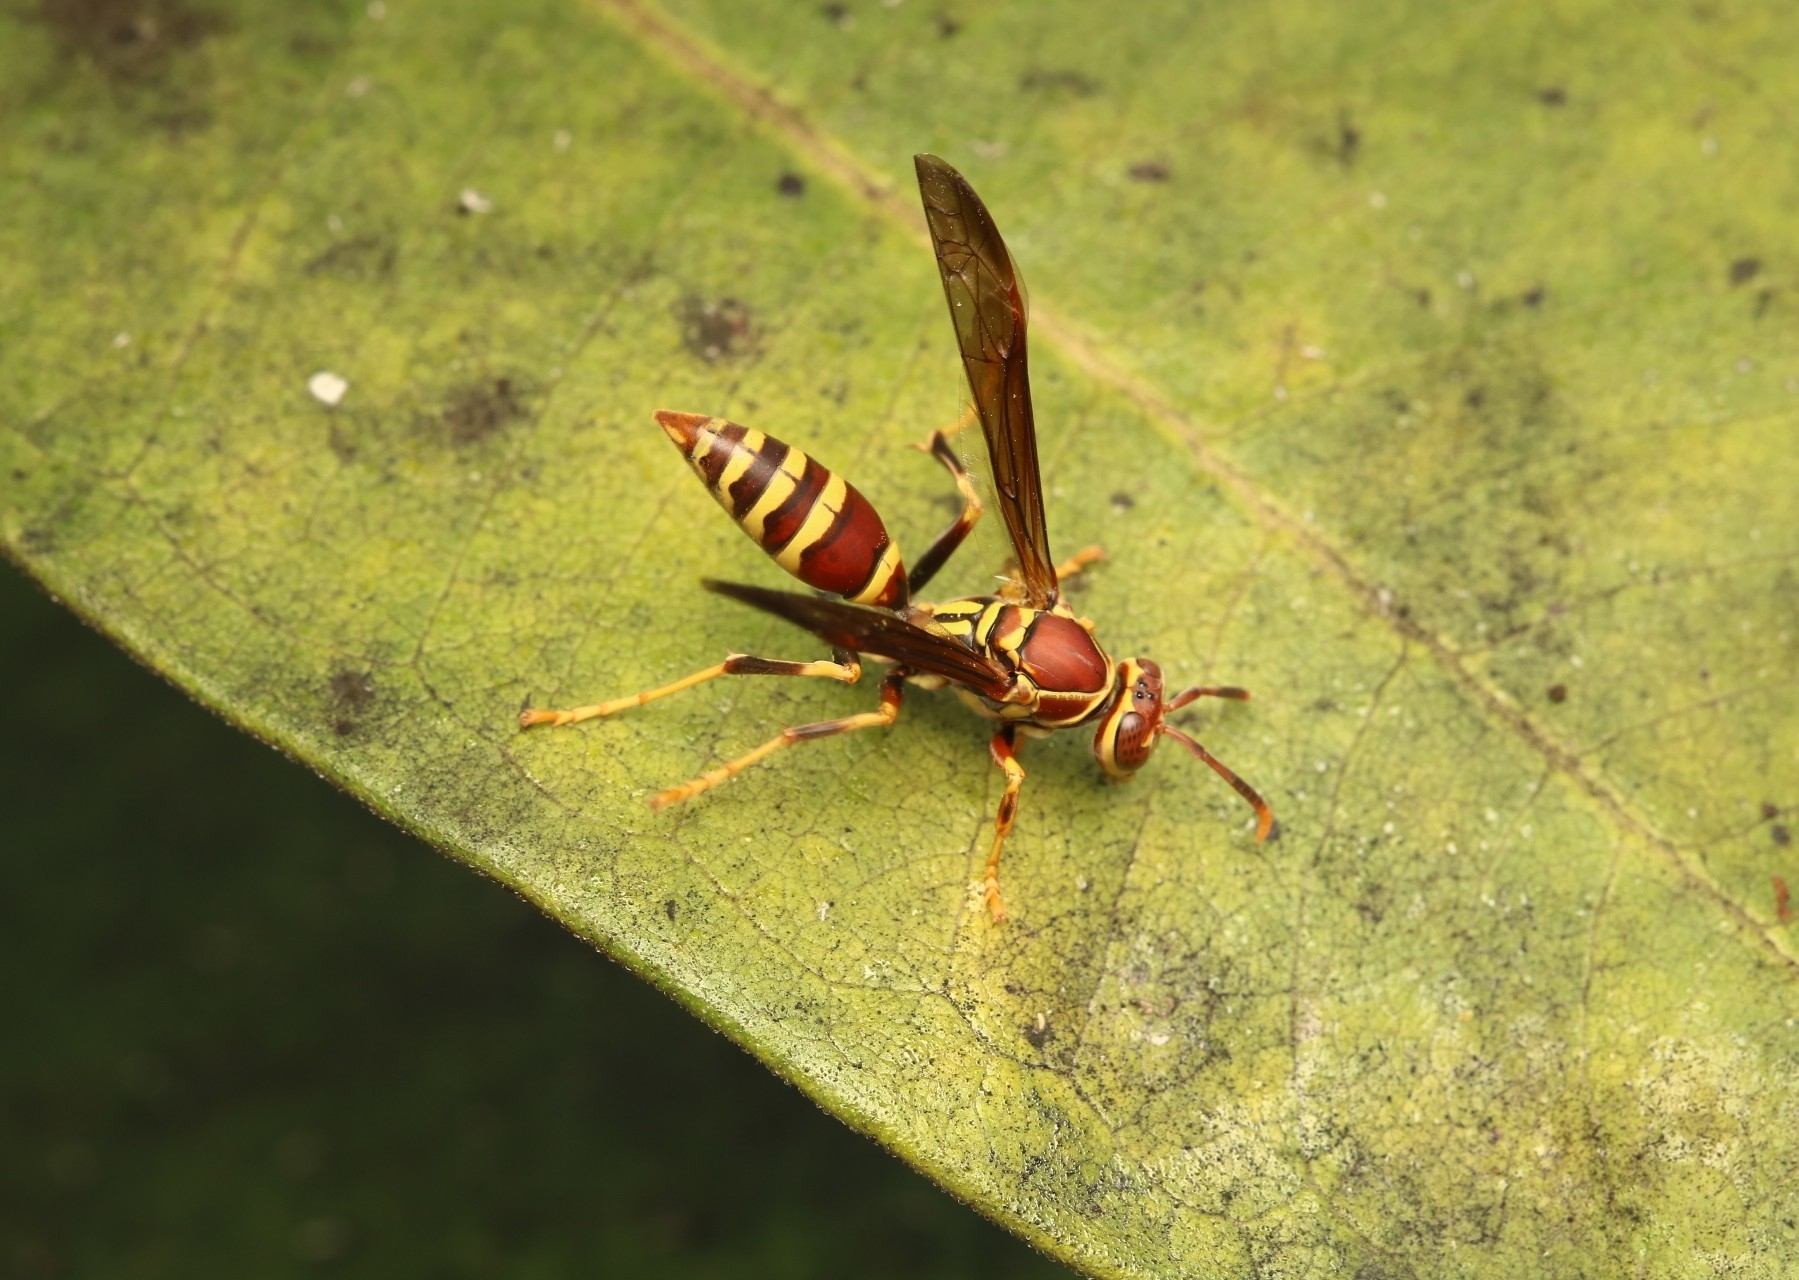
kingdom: Animalia
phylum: Arthropoda
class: Insecta
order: Hymenoptera
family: Eumenidae
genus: Polistes
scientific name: Polistes exclamans
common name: Paper wasp
